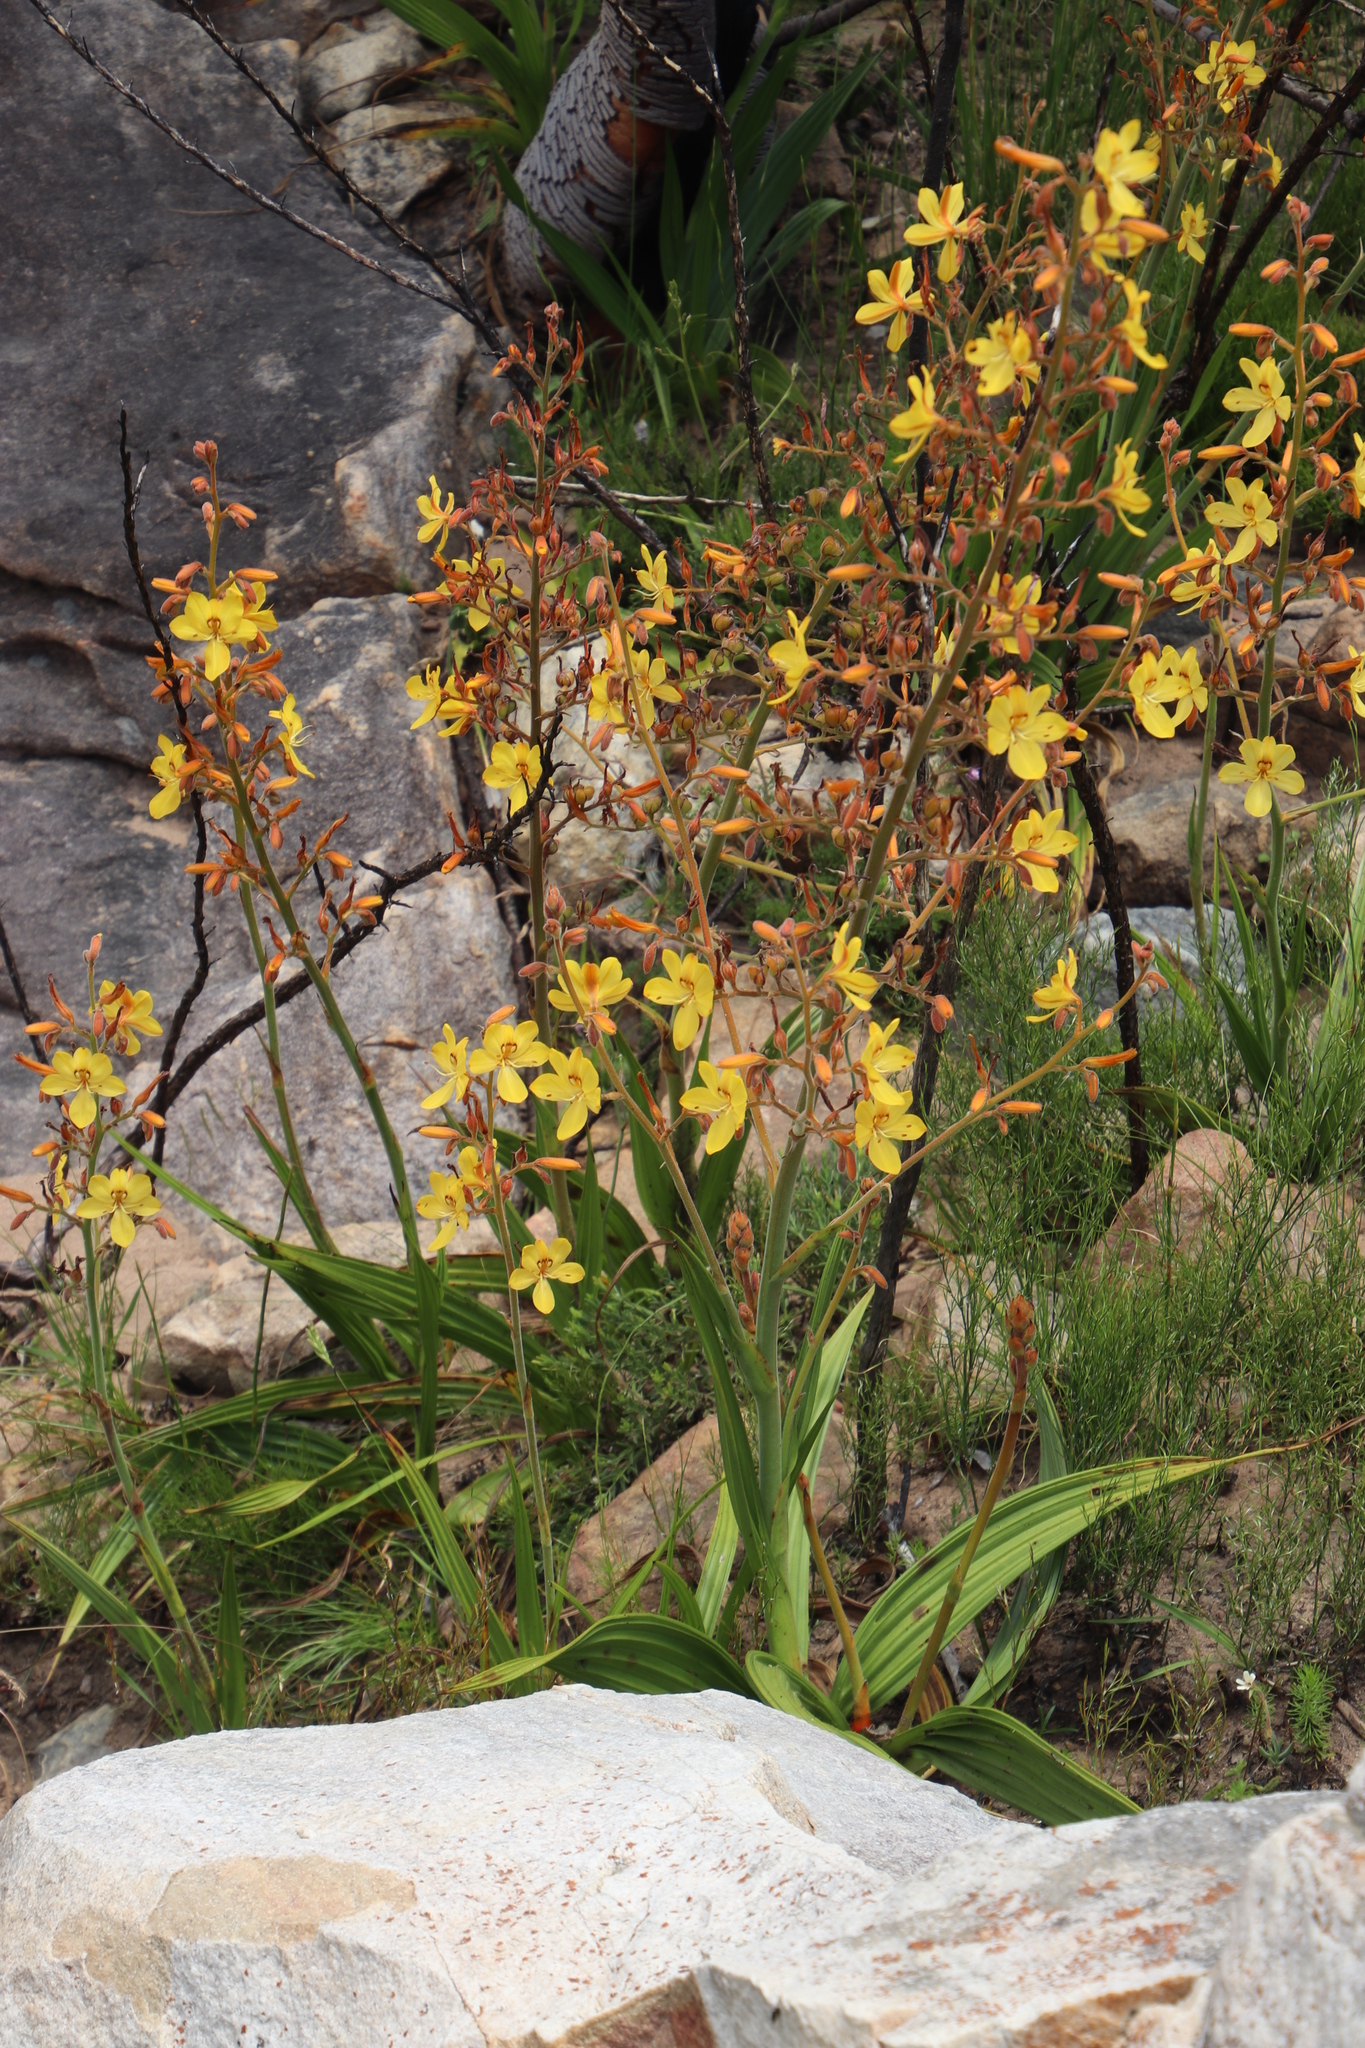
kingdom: Plantae
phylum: Tracheophyta
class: Liliopsida
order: Commelinales
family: Haemodoraceae
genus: Wachendorfia
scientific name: Wachendorfia paniculata
